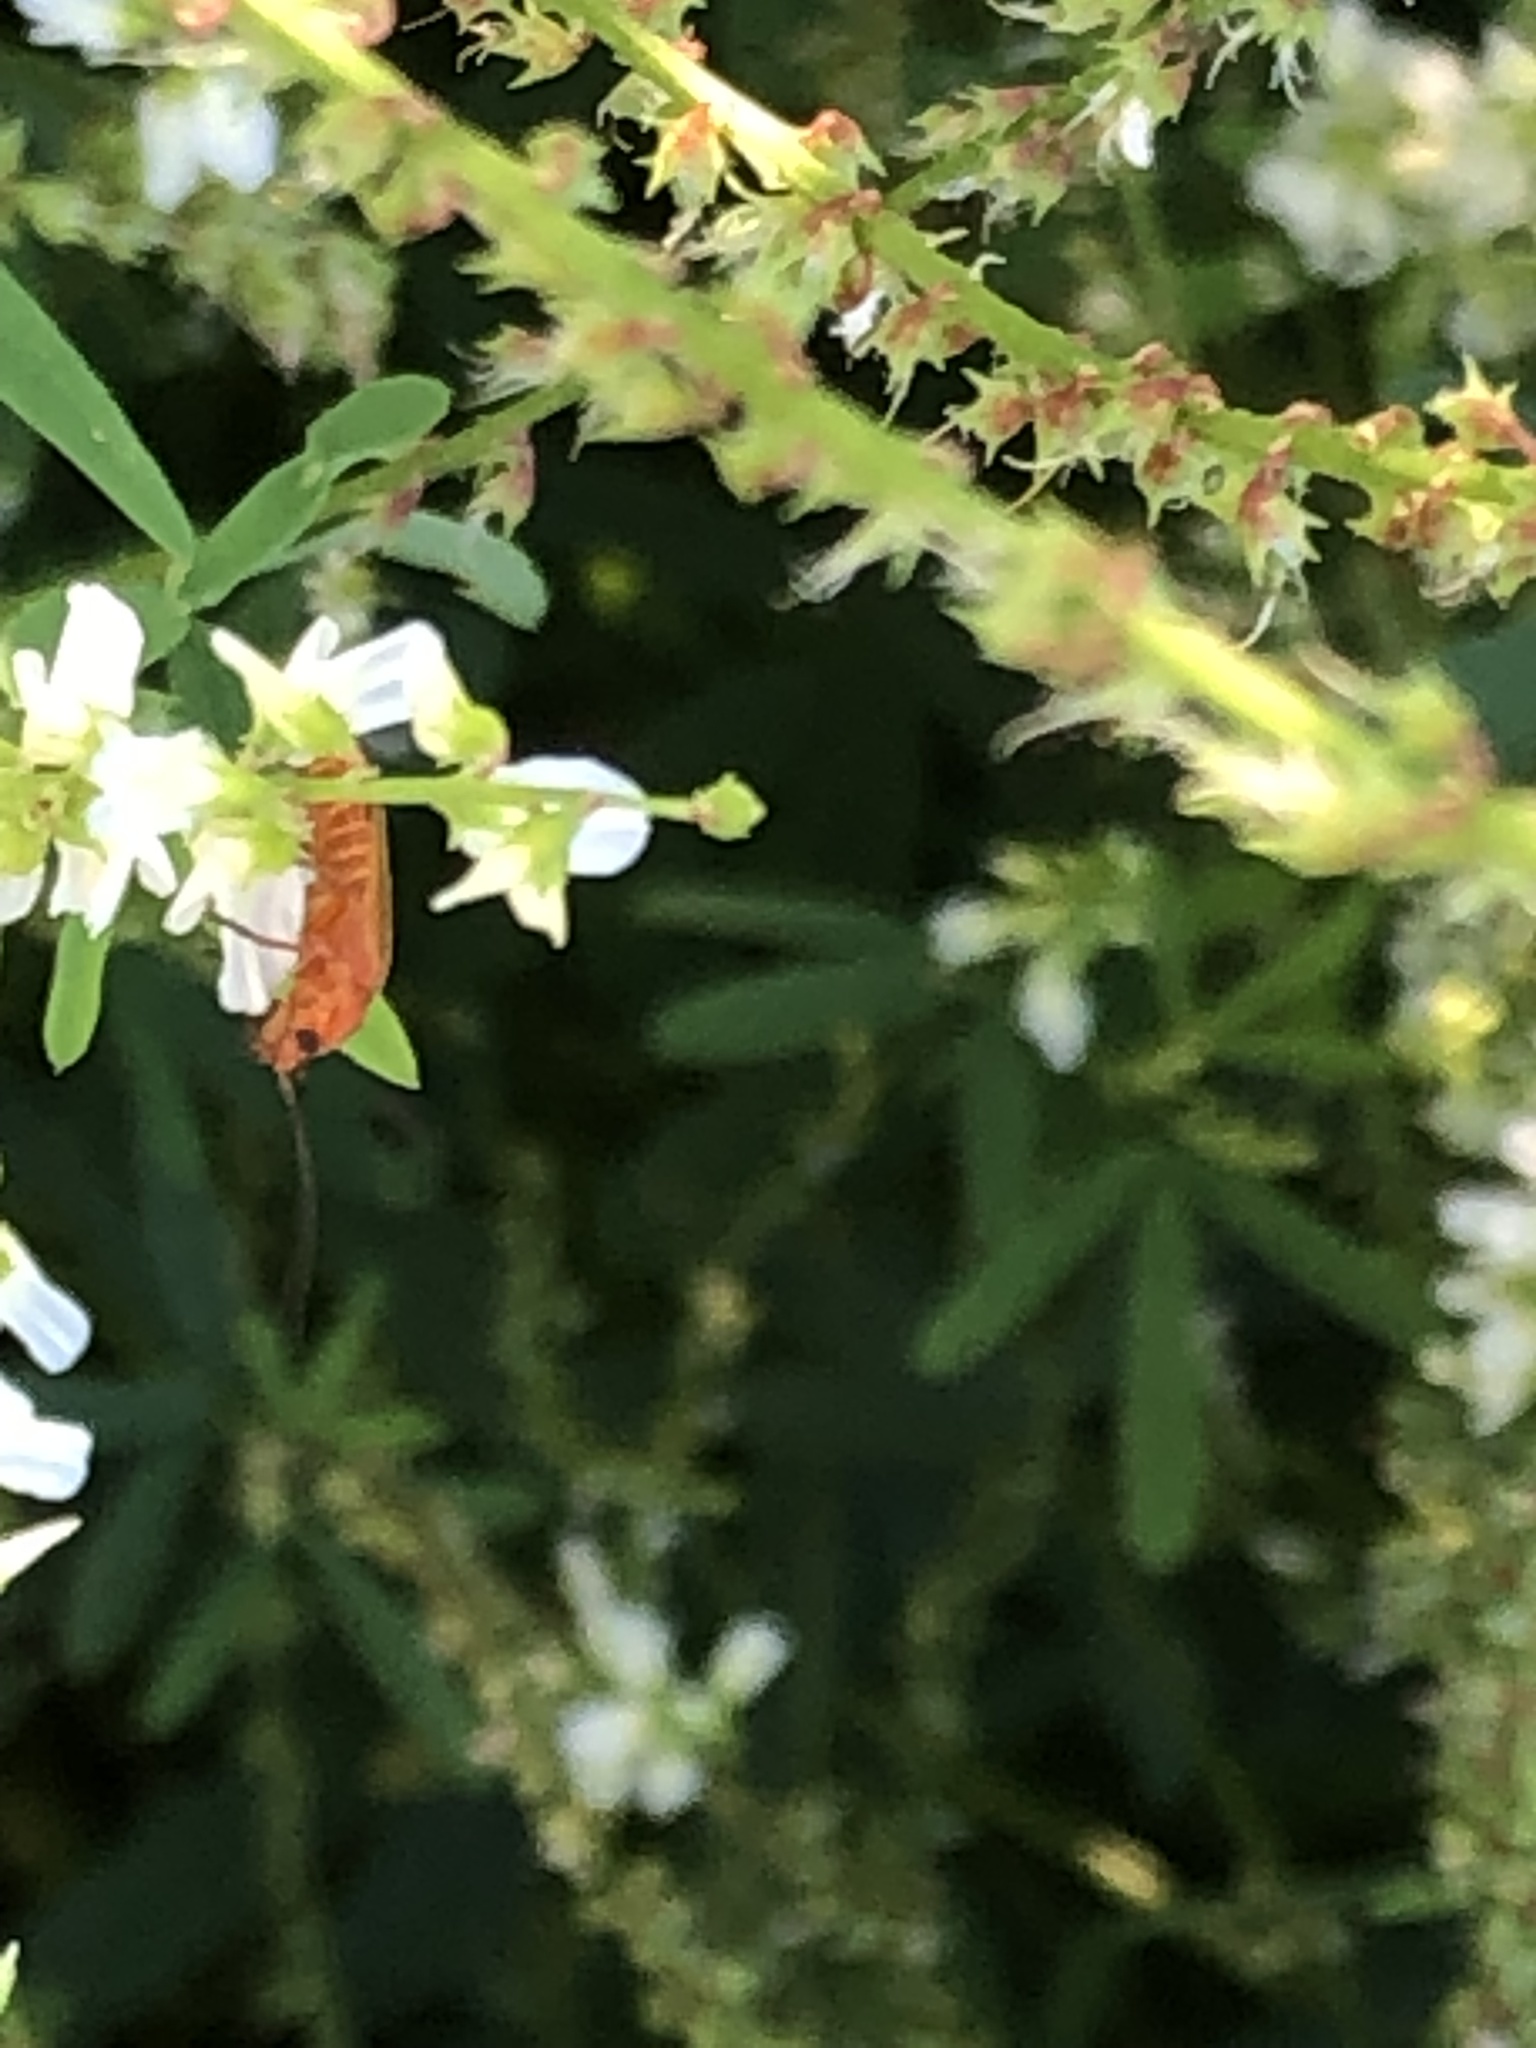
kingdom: Animalia
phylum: Arthropoda
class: Insecta
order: Coleoptera
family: Cantharidae
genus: Rhagonycha
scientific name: Rhagonycha fulva
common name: Common red soldier beetle
